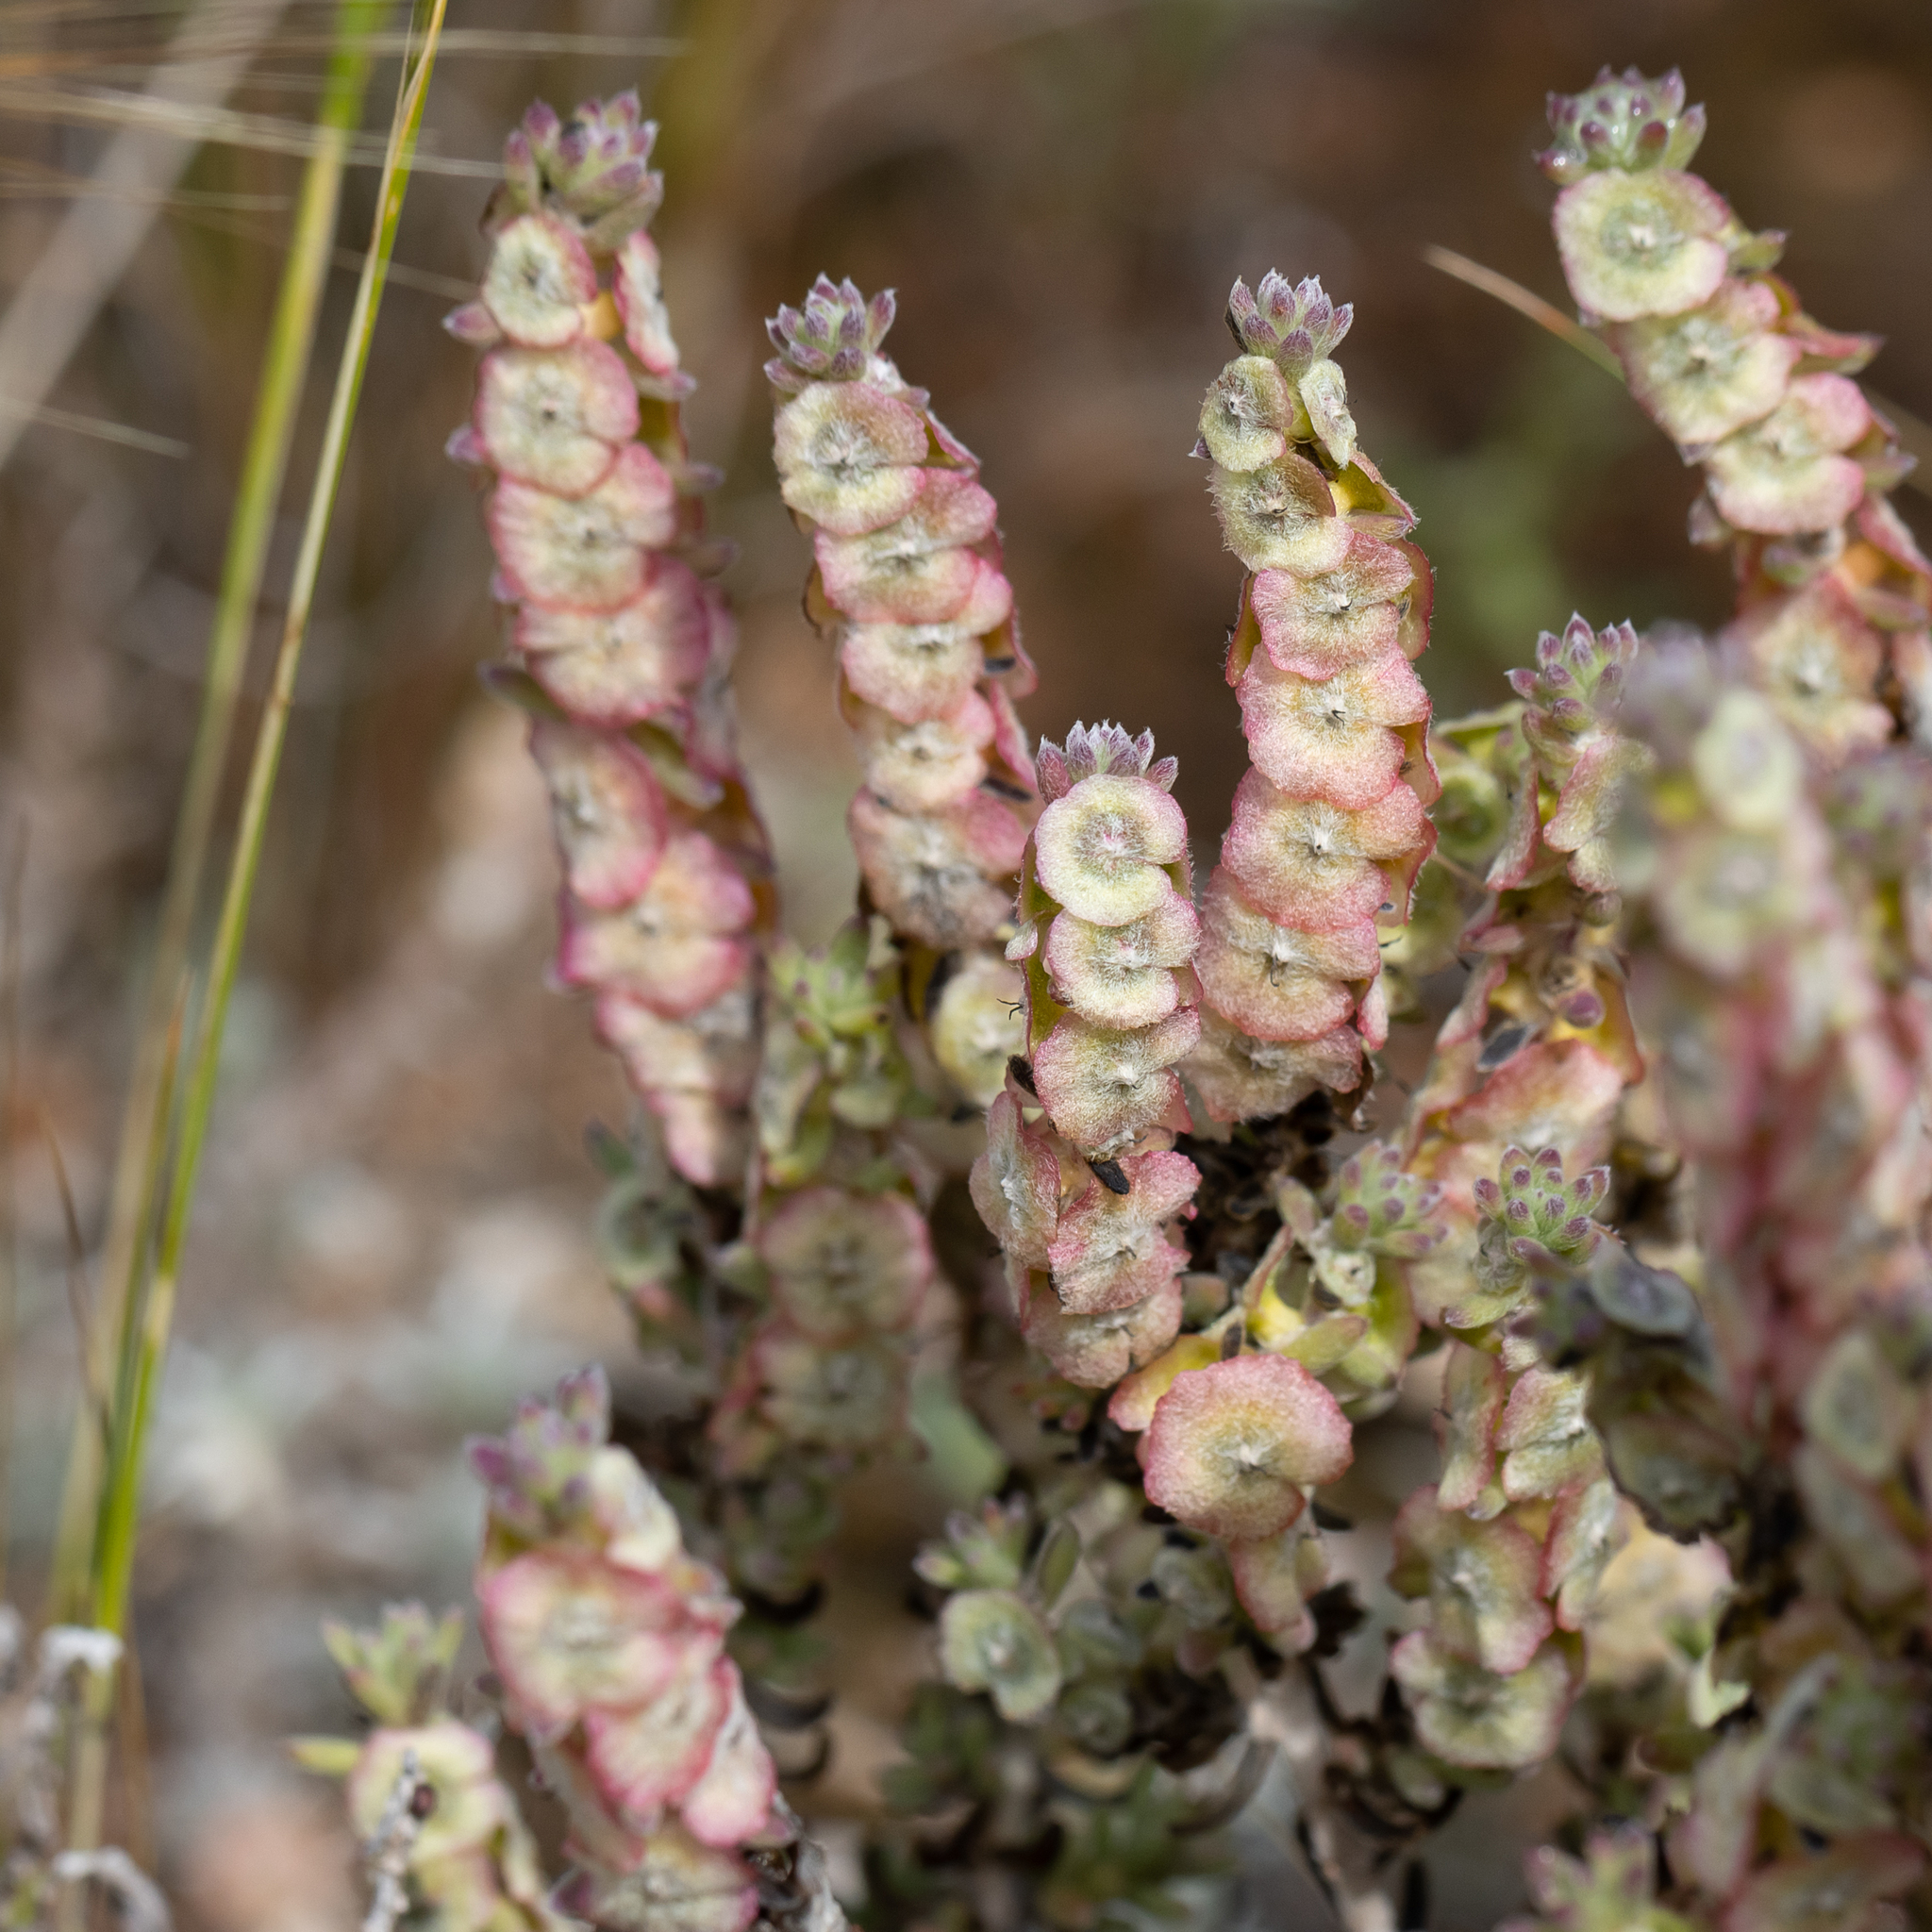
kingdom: Plantae
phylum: Tracheophyta
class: Magnoliopsida
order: Caryophyllales
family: Amaranthaceae
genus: Maireana
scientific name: Maireana trichoptera
